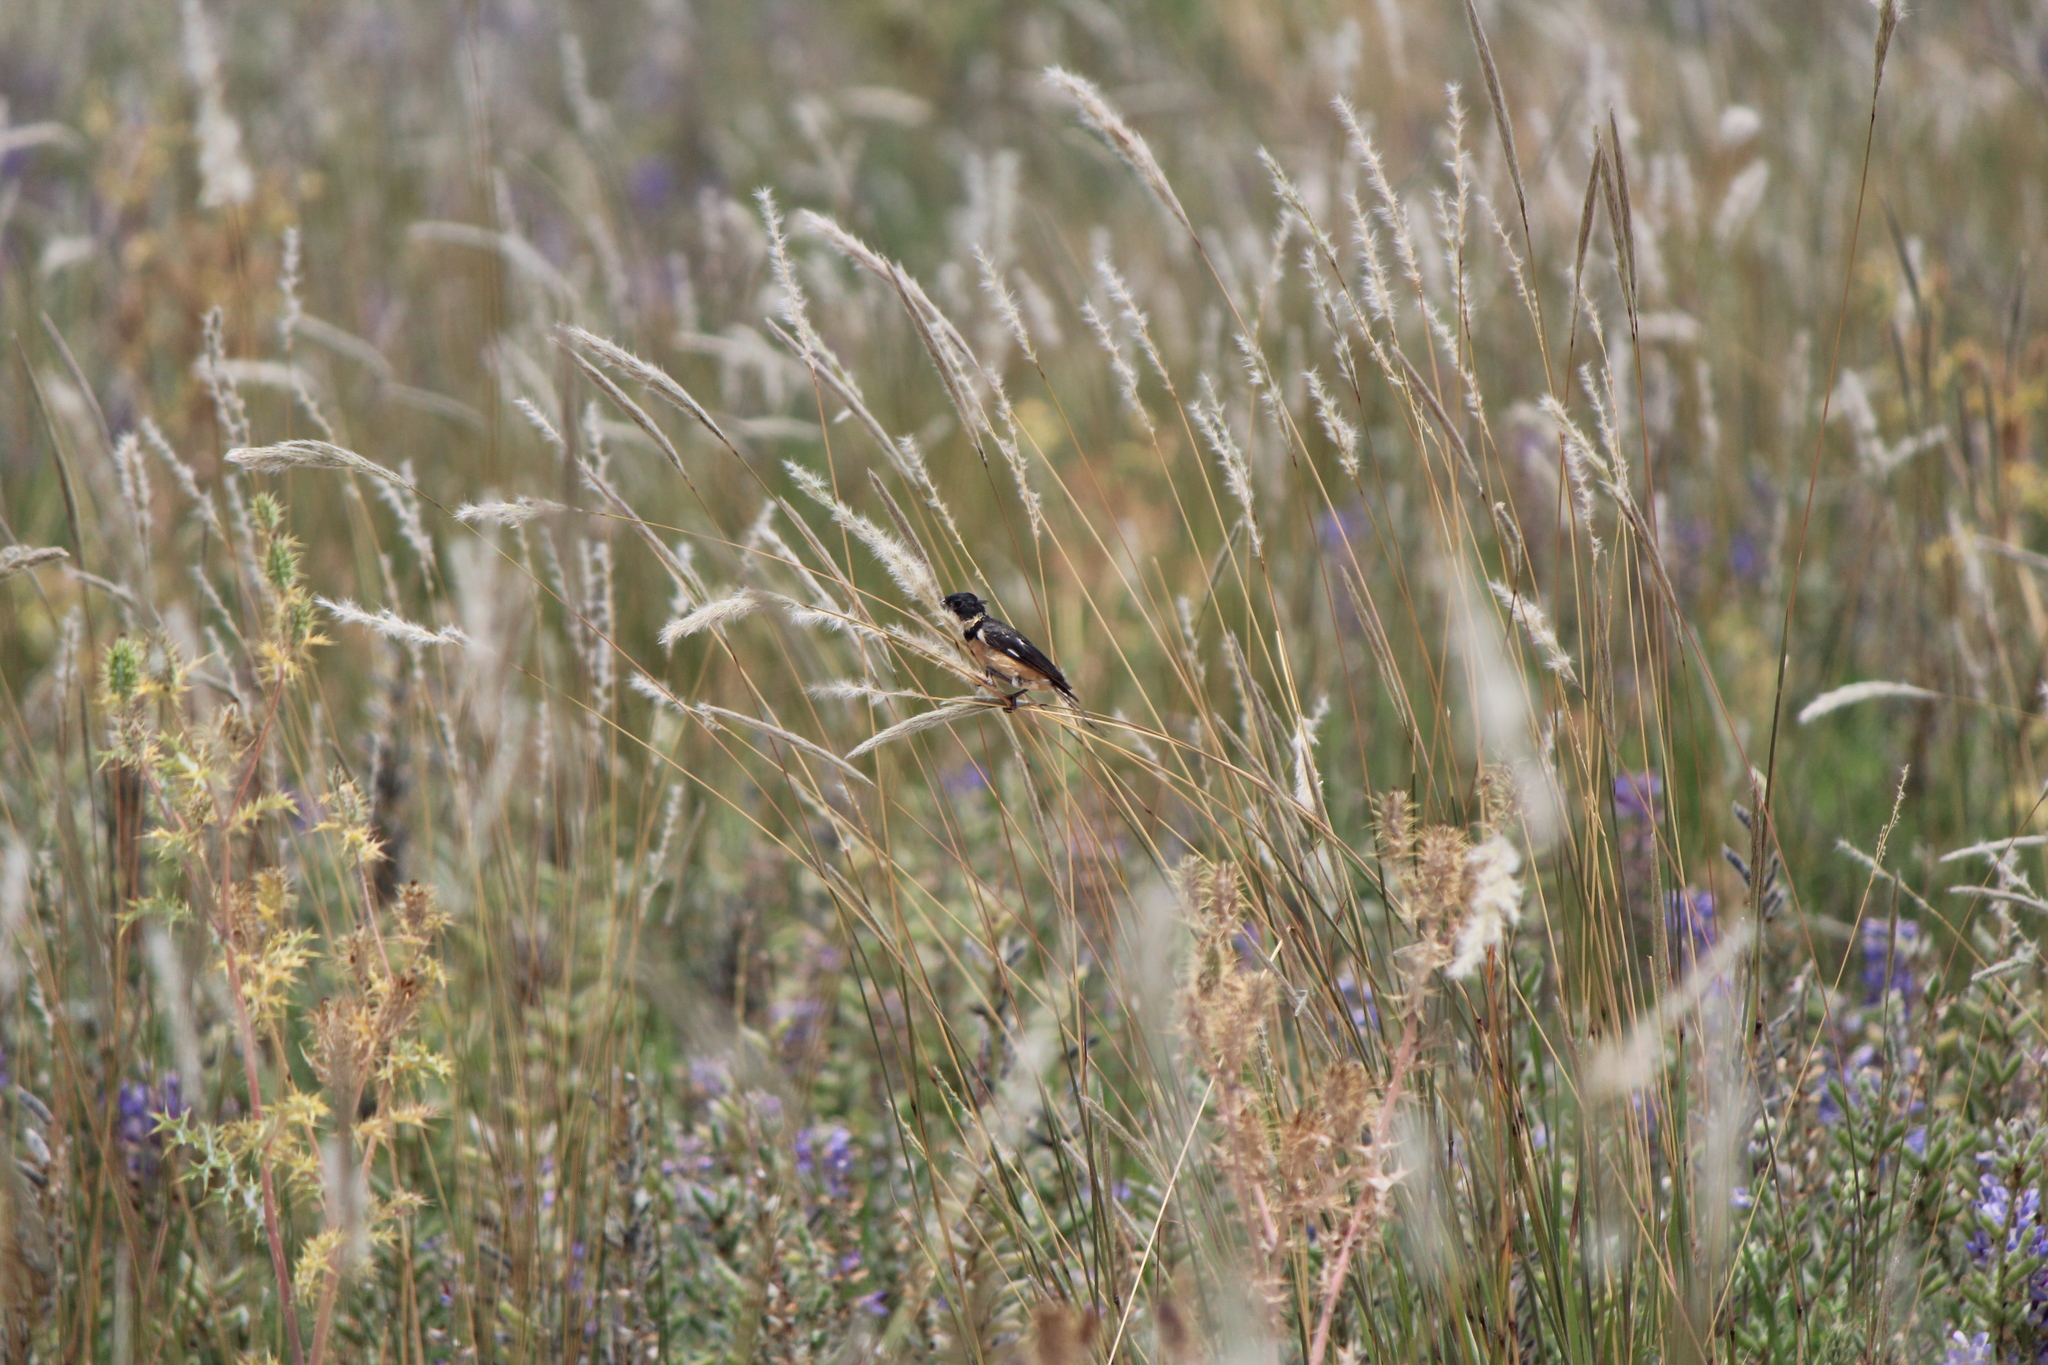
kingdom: Animalia
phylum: Chordata
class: Aves
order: Passeriformes
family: Thraupidae
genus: Sporophila
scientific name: Sporophila torqueola
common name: White-collared seedeater
